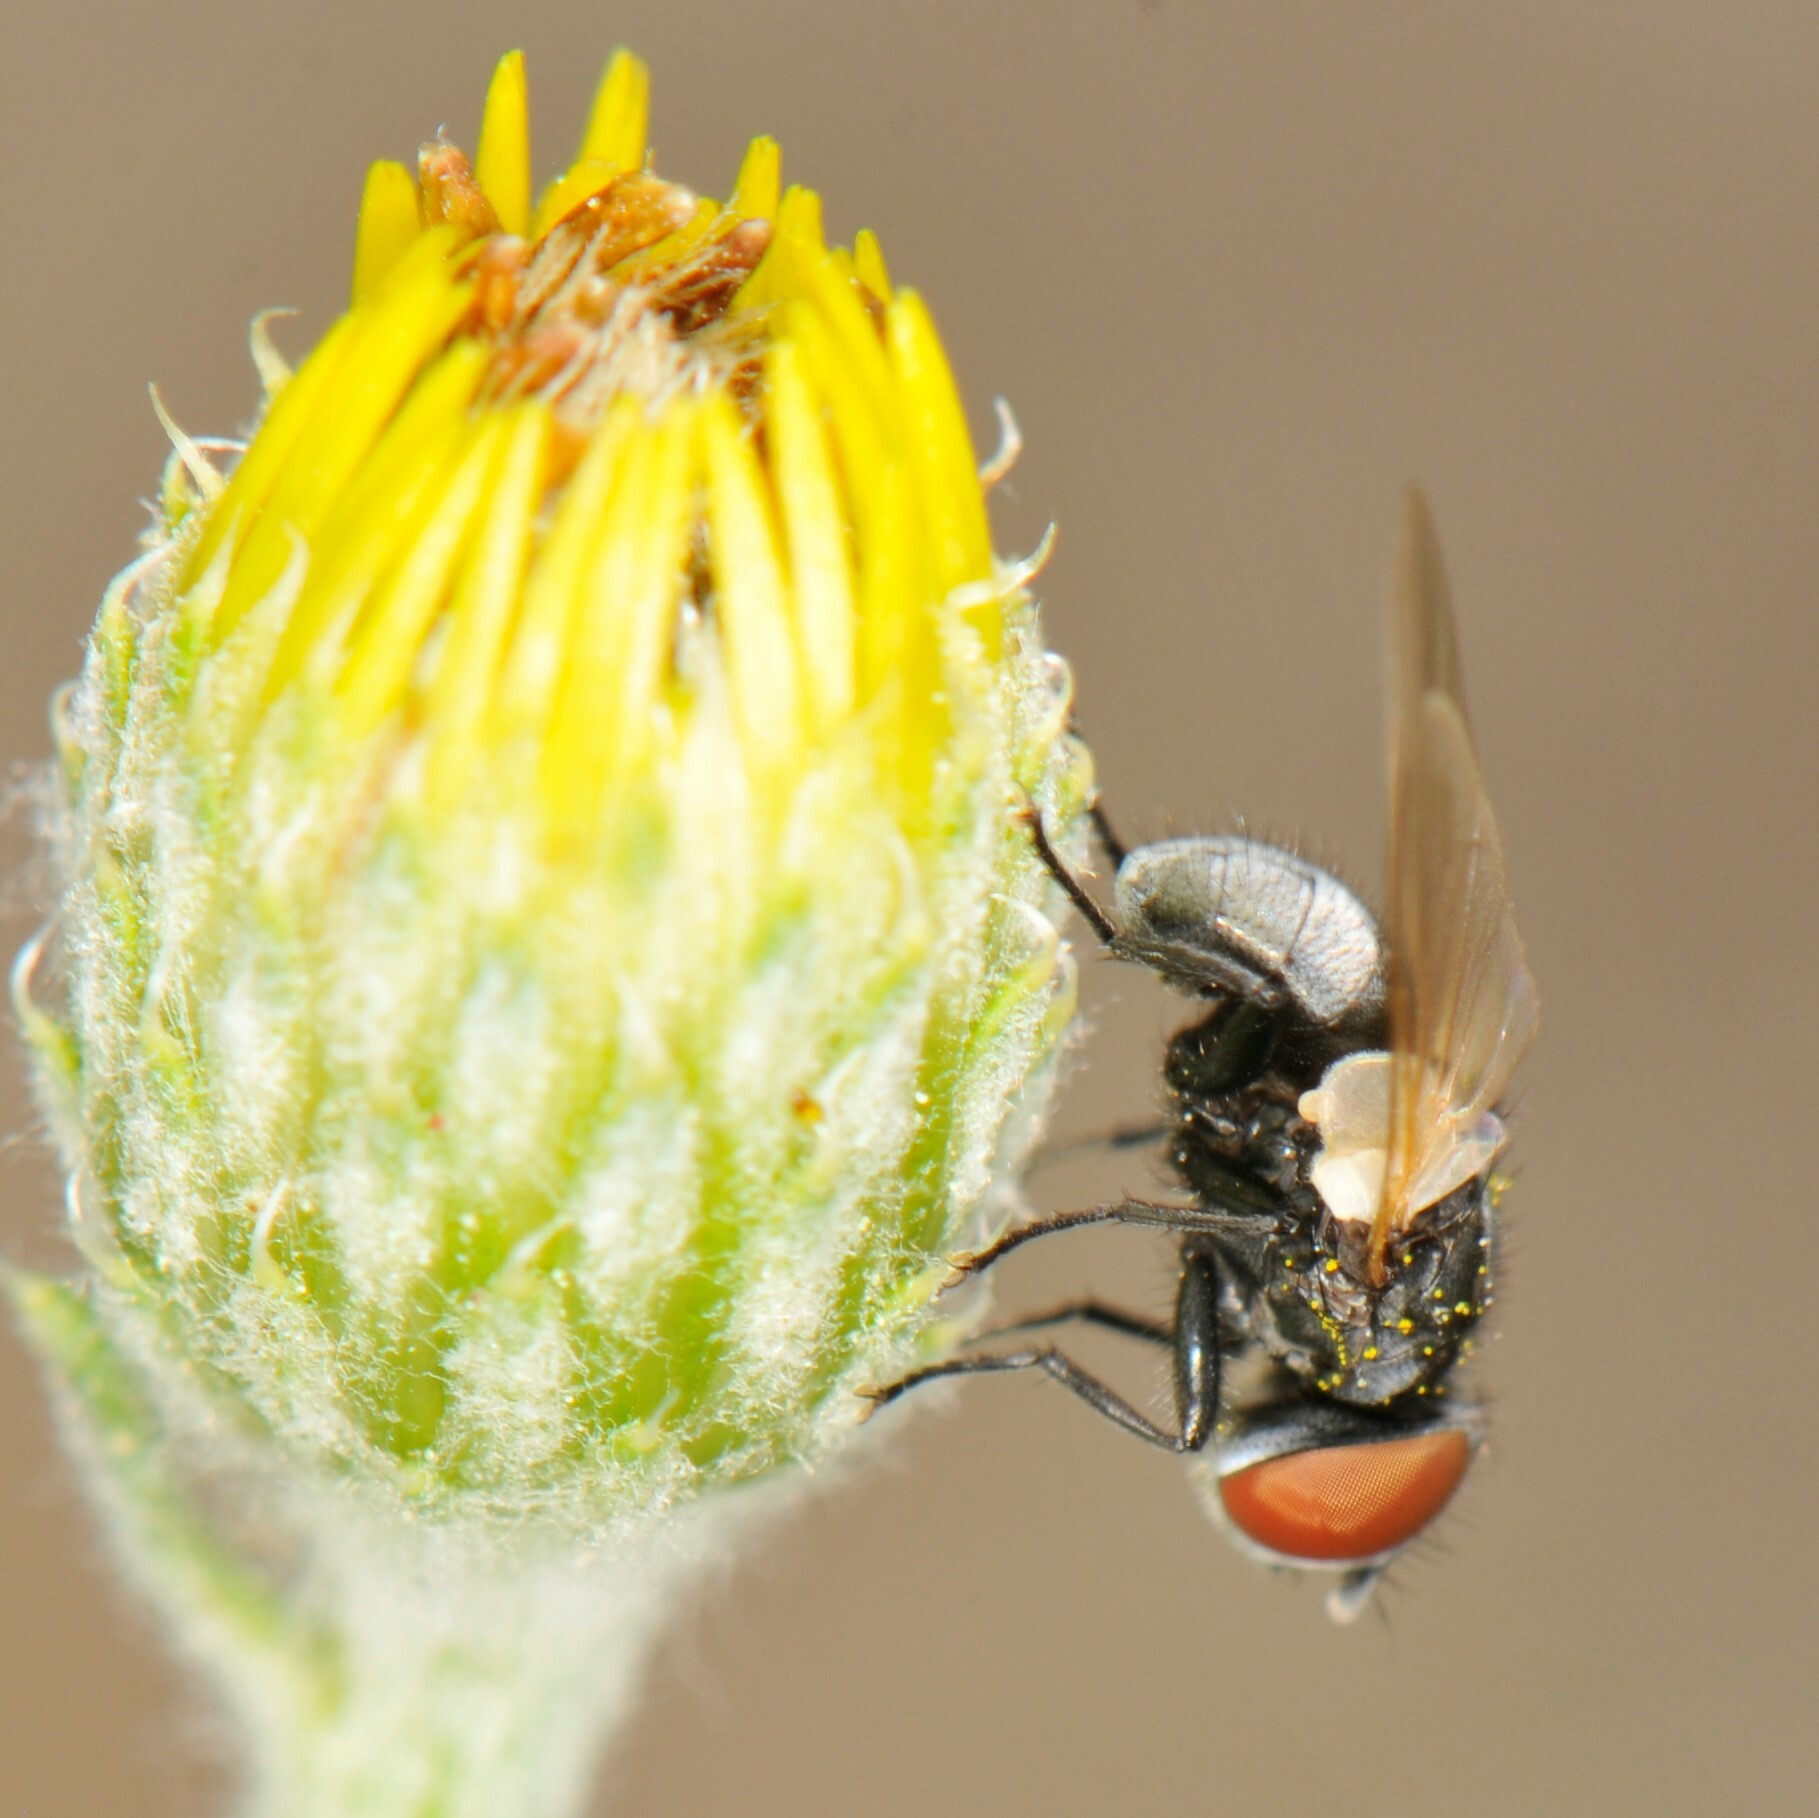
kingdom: Animalia
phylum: Arthropoda
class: Insecta
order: Diptera
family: Tachinidae
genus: Phasia
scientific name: Phasia
